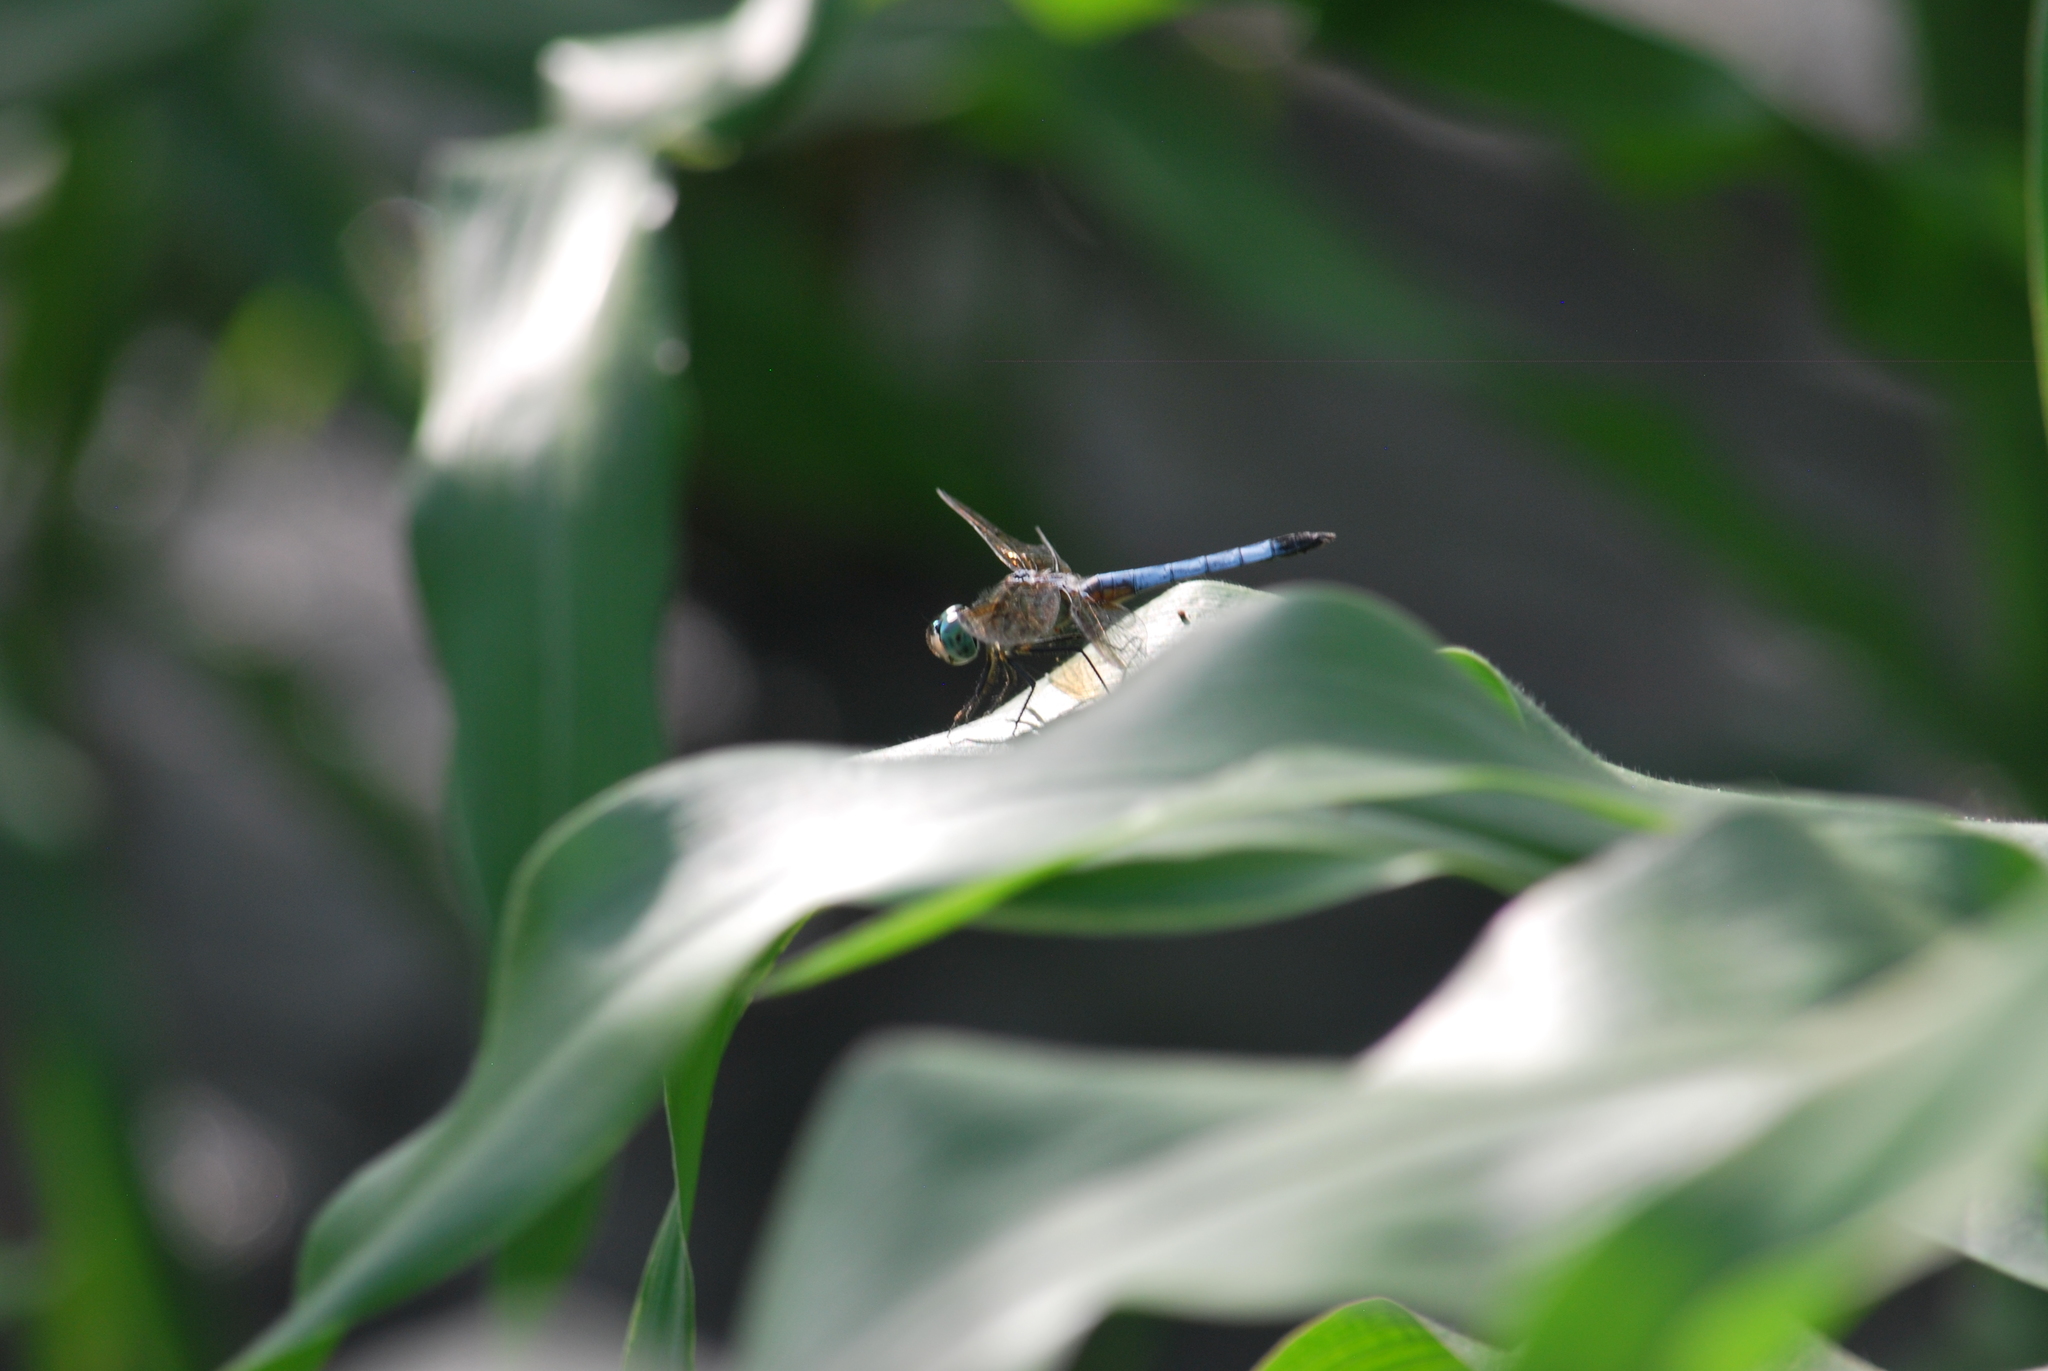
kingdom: Animalia
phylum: Arthropoda
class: Insecta
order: Odonata
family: Libellulidae
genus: Pachydiplax
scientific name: Pachydiplax longipennis
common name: Blue dasher
